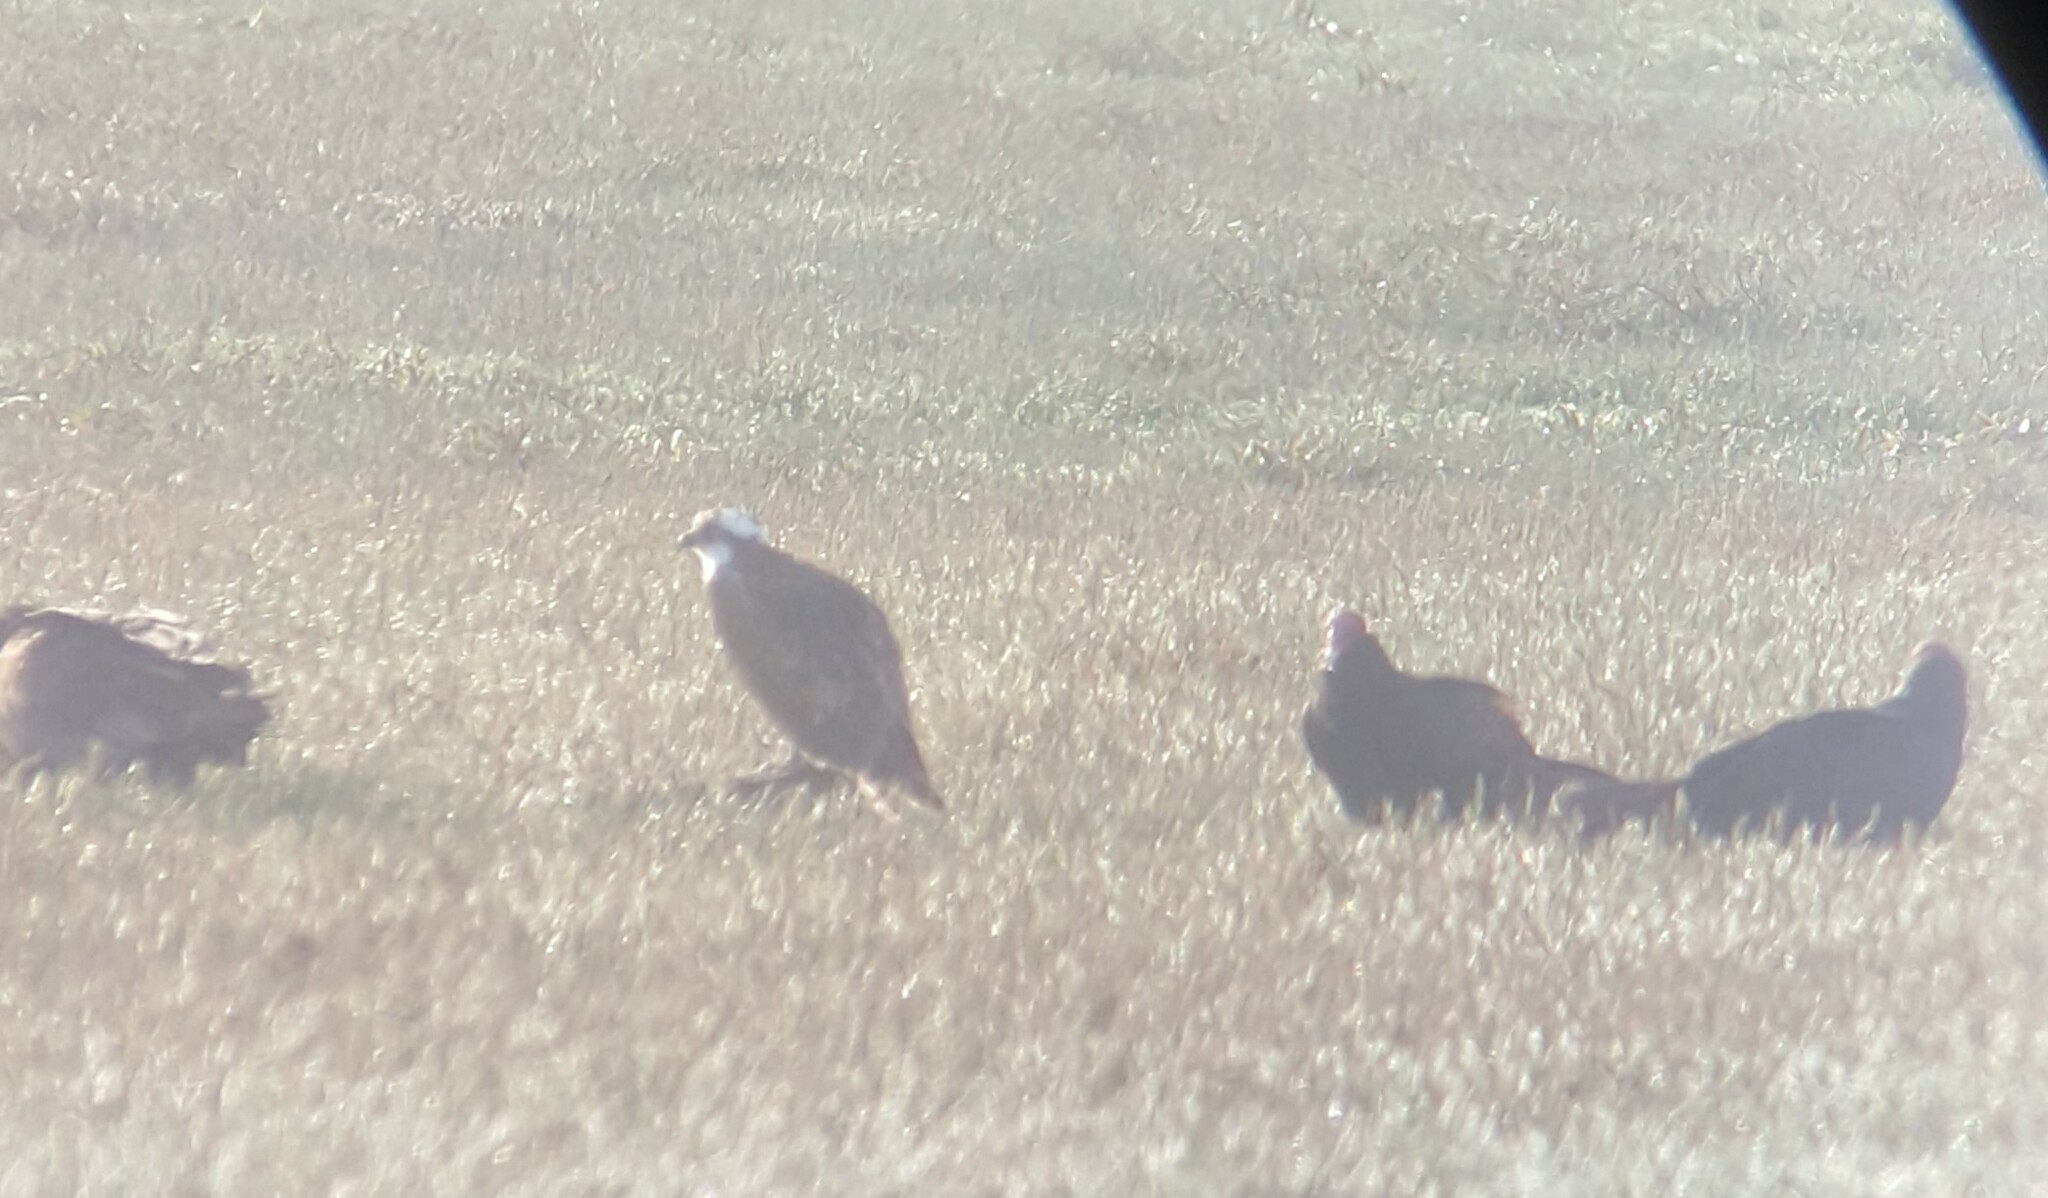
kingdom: Animalia
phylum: Chordata
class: Aves
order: Accipitriformes
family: Pandionidae
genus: Pandion
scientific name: Pandion haliaetus
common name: Osprey
